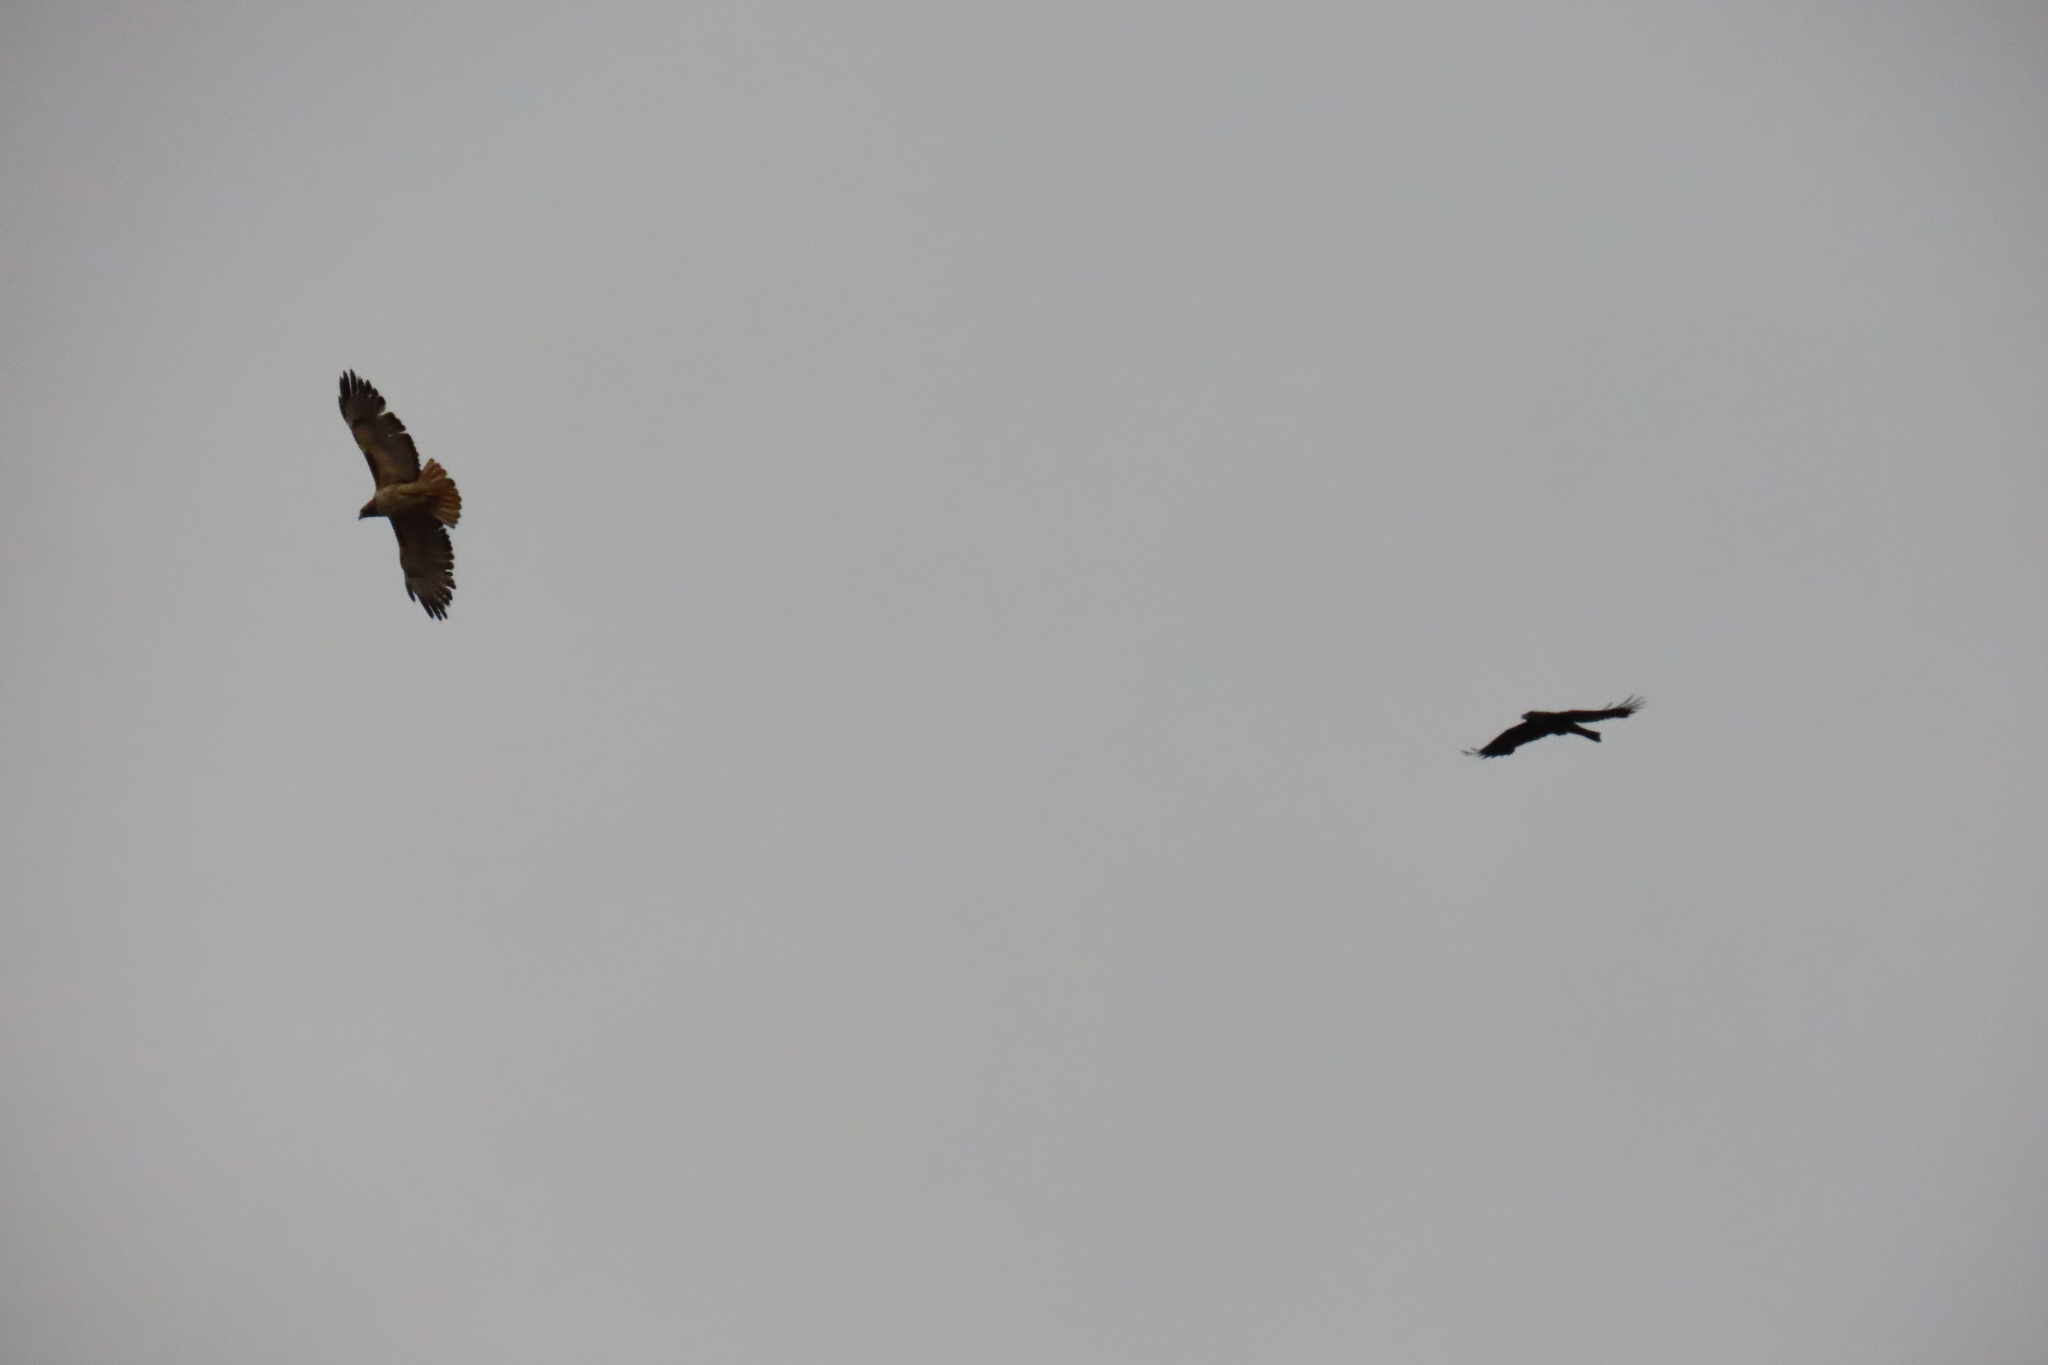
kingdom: Animalia
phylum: Chordata
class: Aves
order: Accipitriformes
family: Accipitridae
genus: Buteo
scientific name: Buteo jamaicensis
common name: Red-tailed hawk
